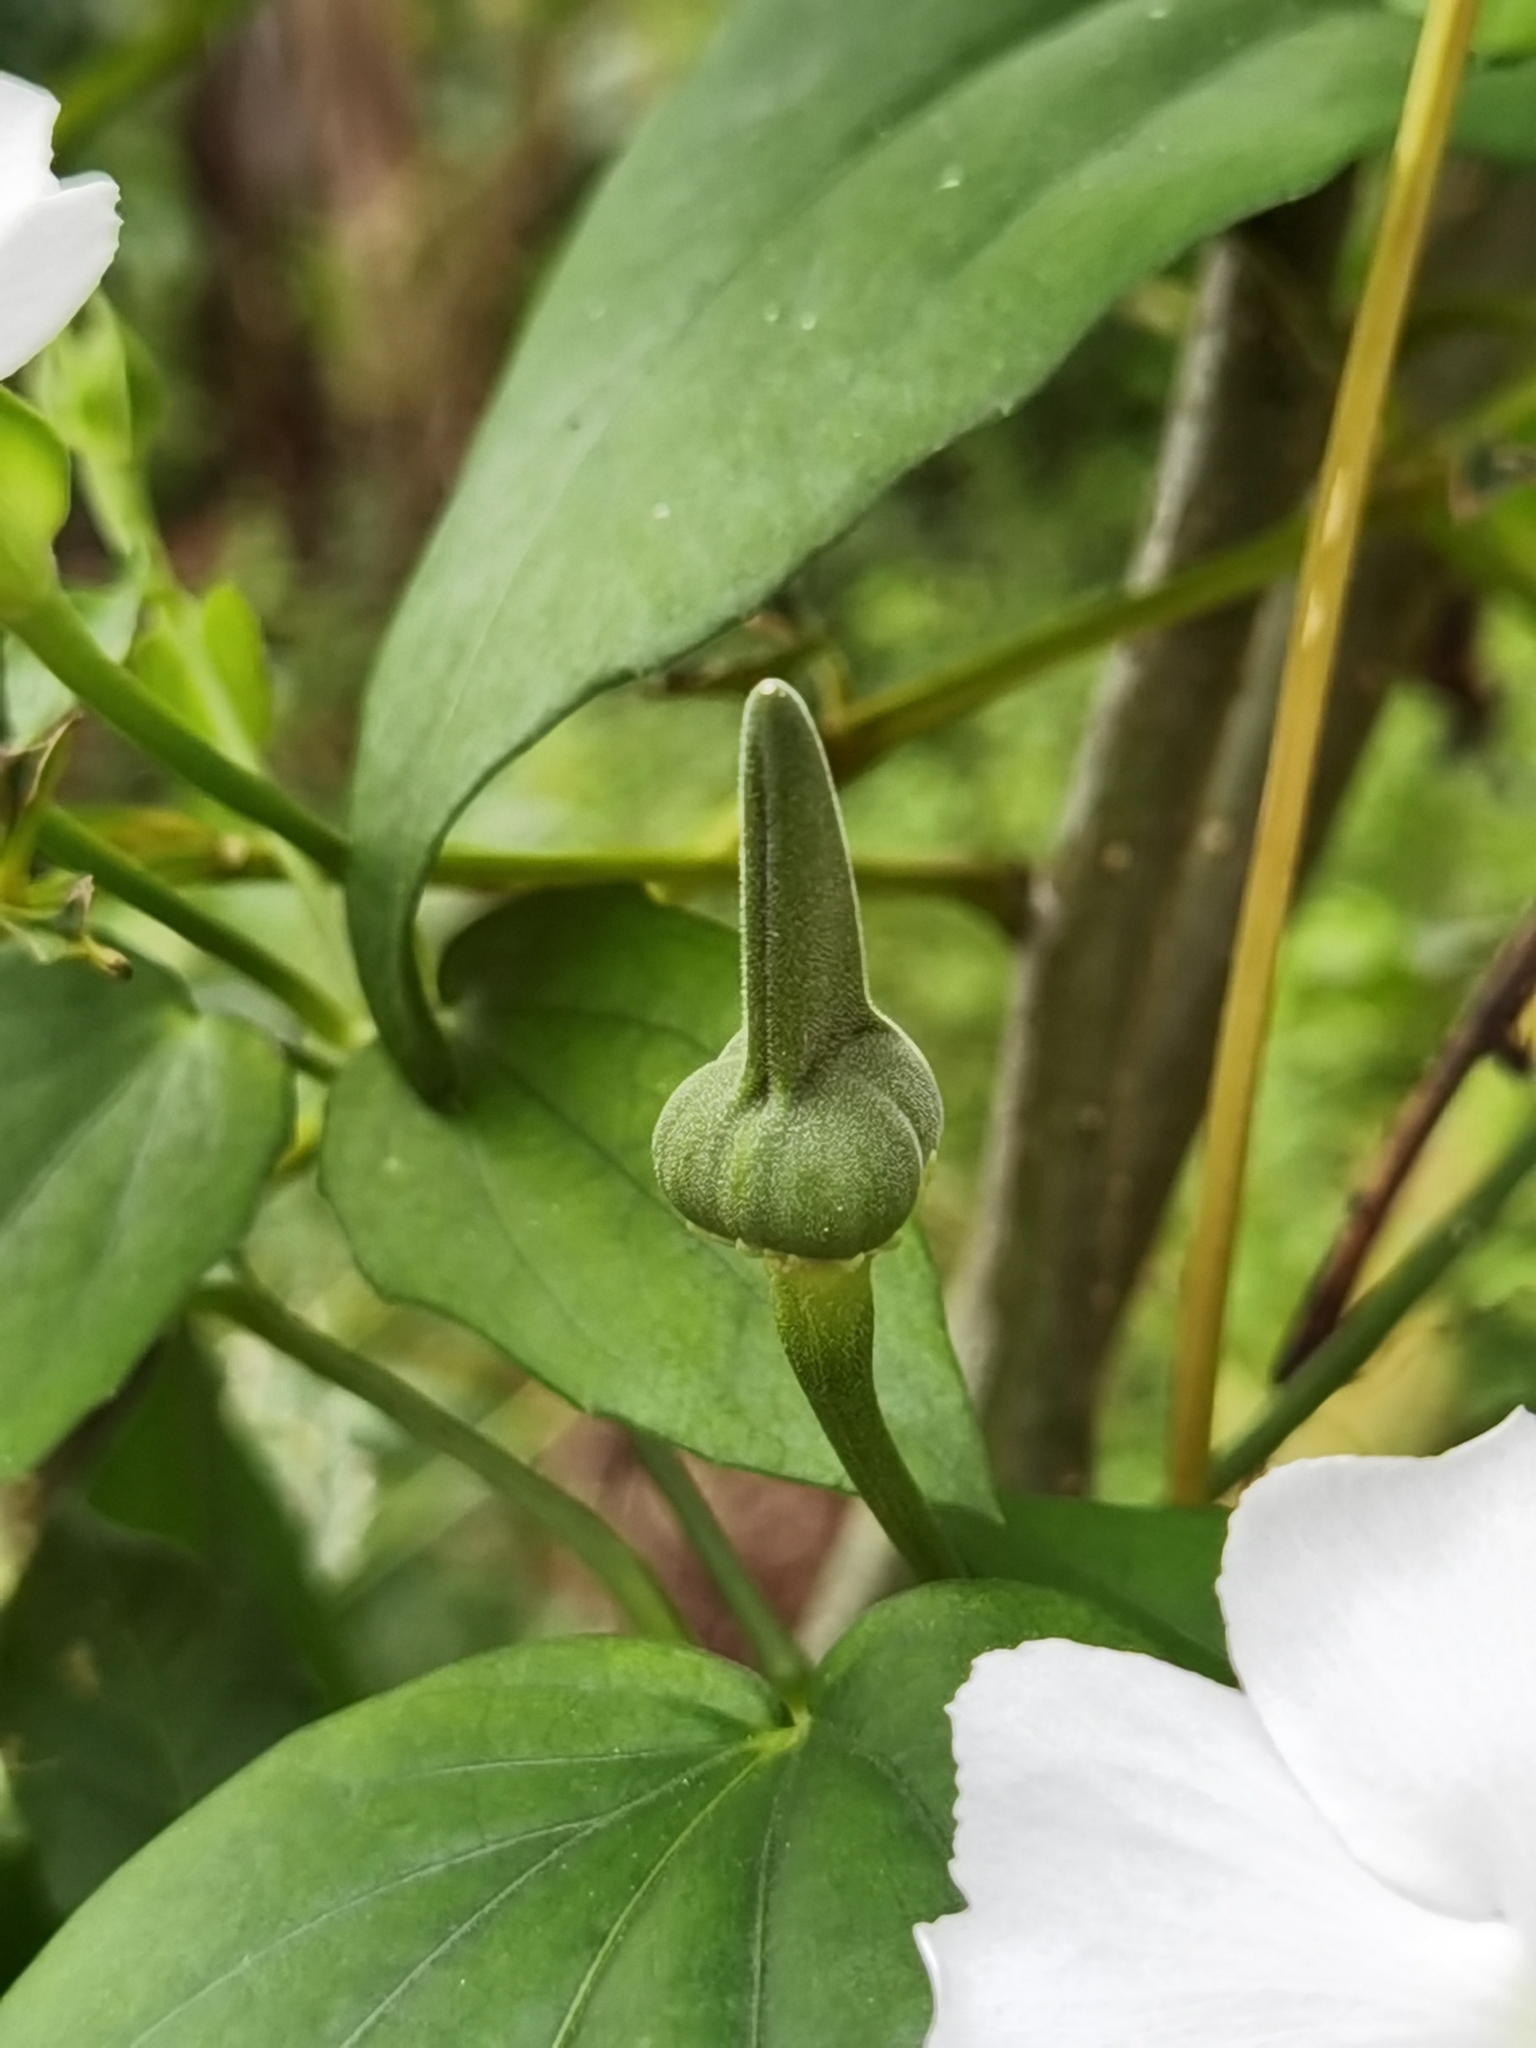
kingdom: Plantae
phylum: Tracheophyta
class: Magnoliopsida
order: Lamiales
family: Acanthaceae
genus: Thunbergia
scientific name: Thunbergia fragrans
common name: Whitelady
